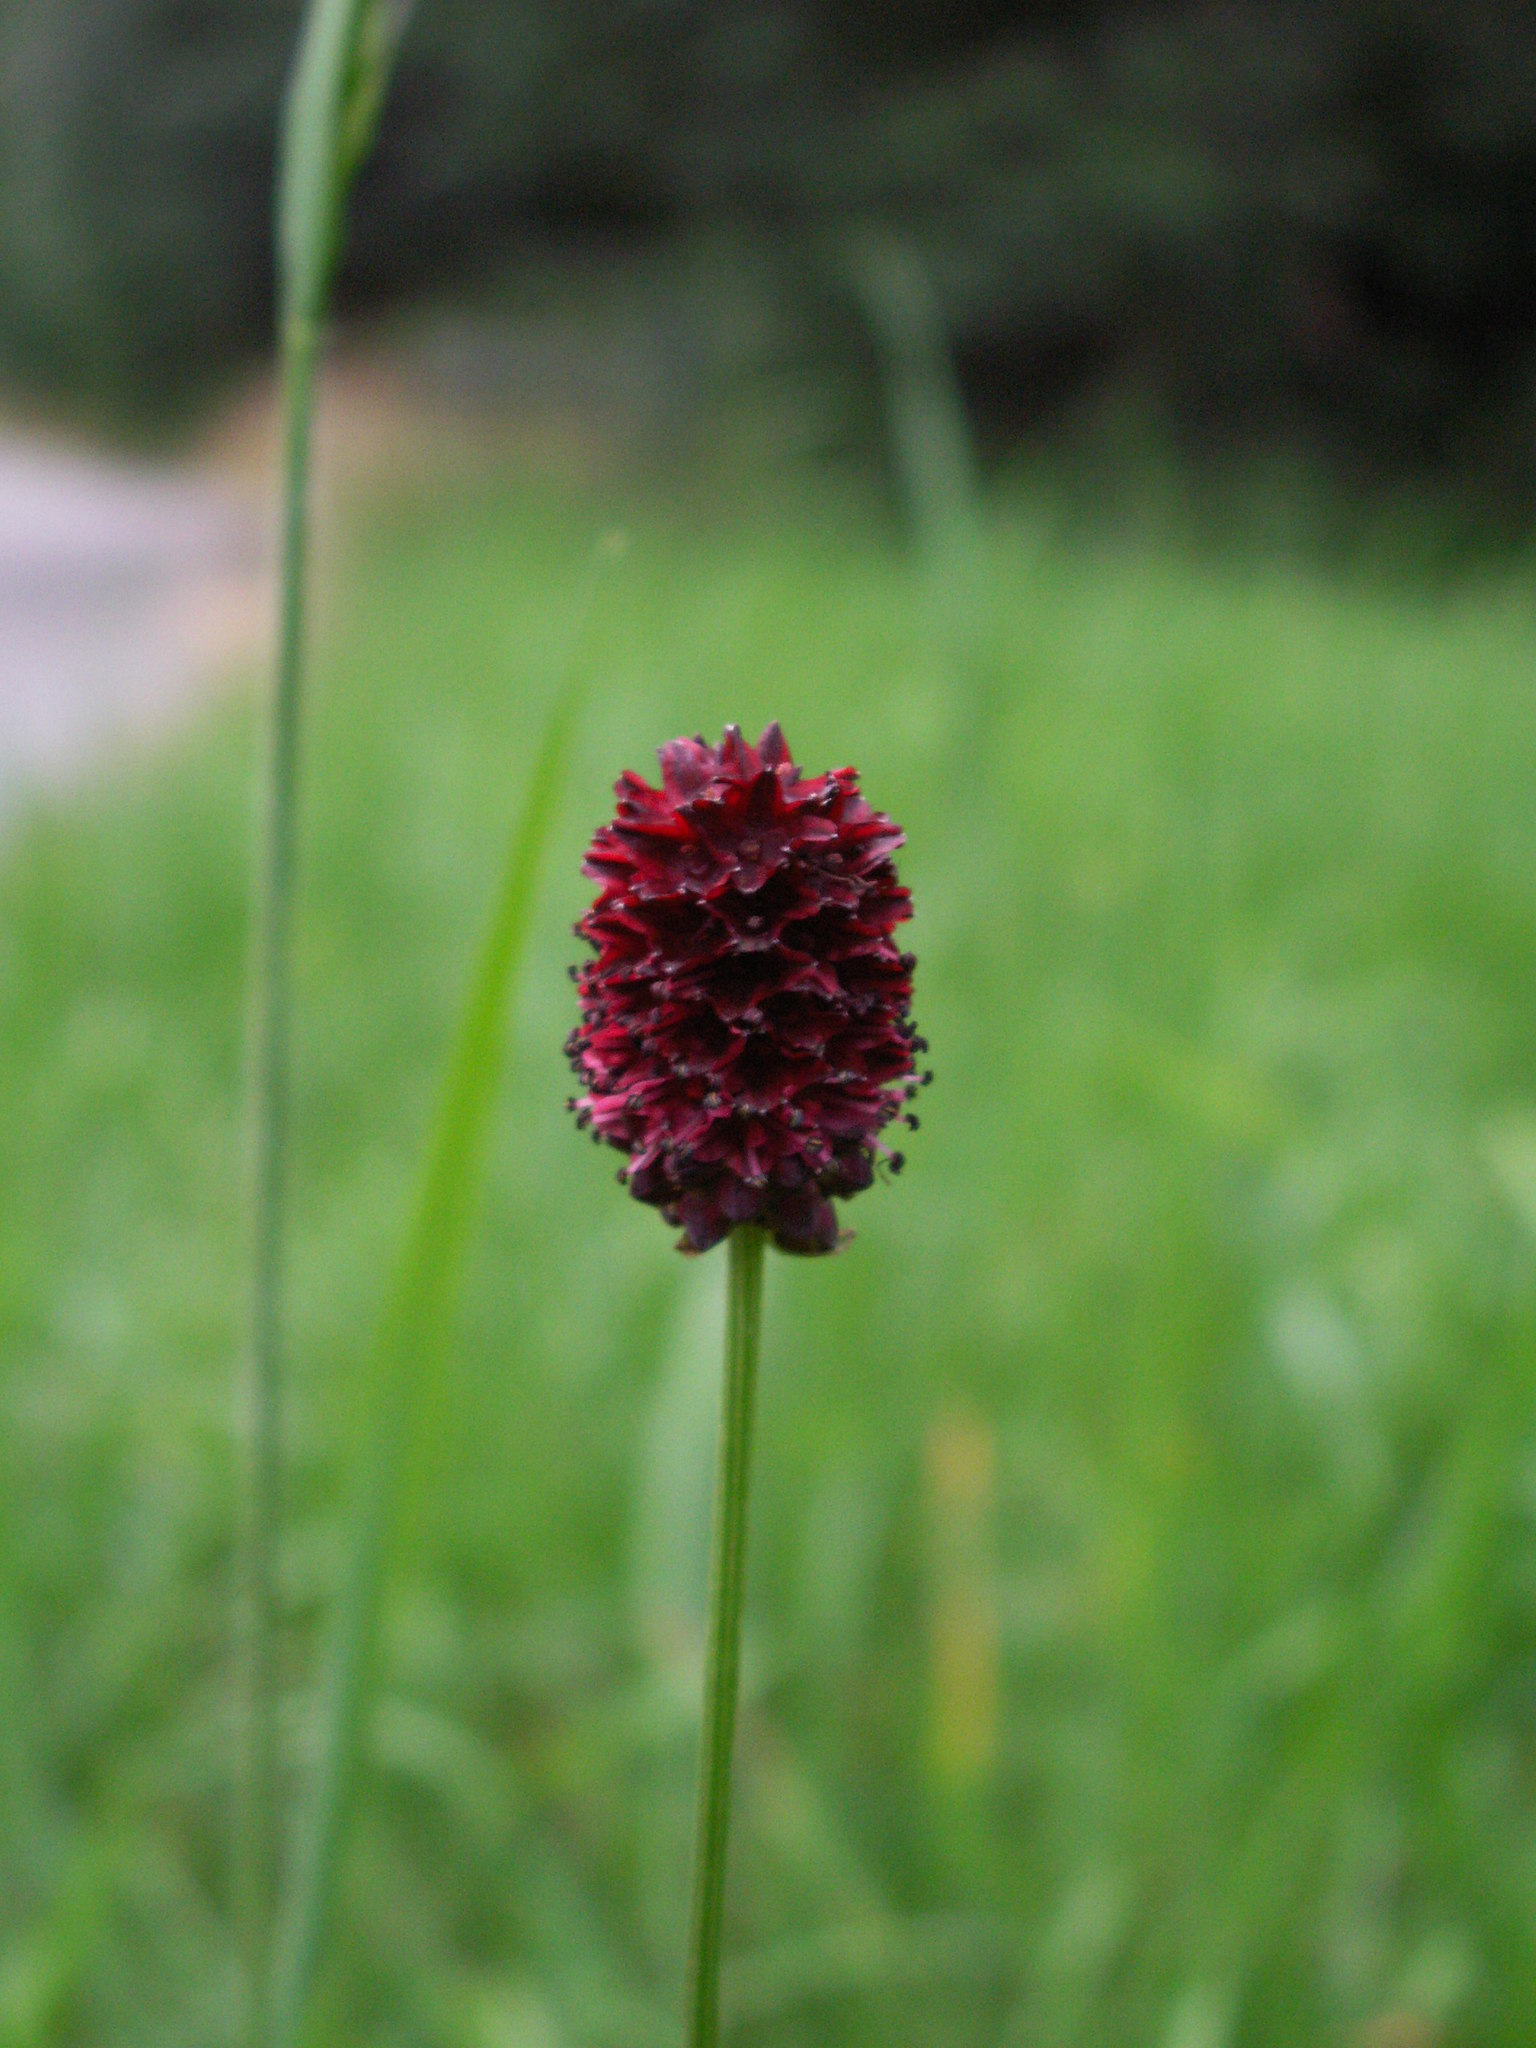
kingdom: Plantae
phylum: Tracheophyta
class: Magnoliopsida
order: Rosales
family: Rosaceae
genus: Sanguisorba
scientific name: Sanguisorba officinalis
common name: Great burnet
